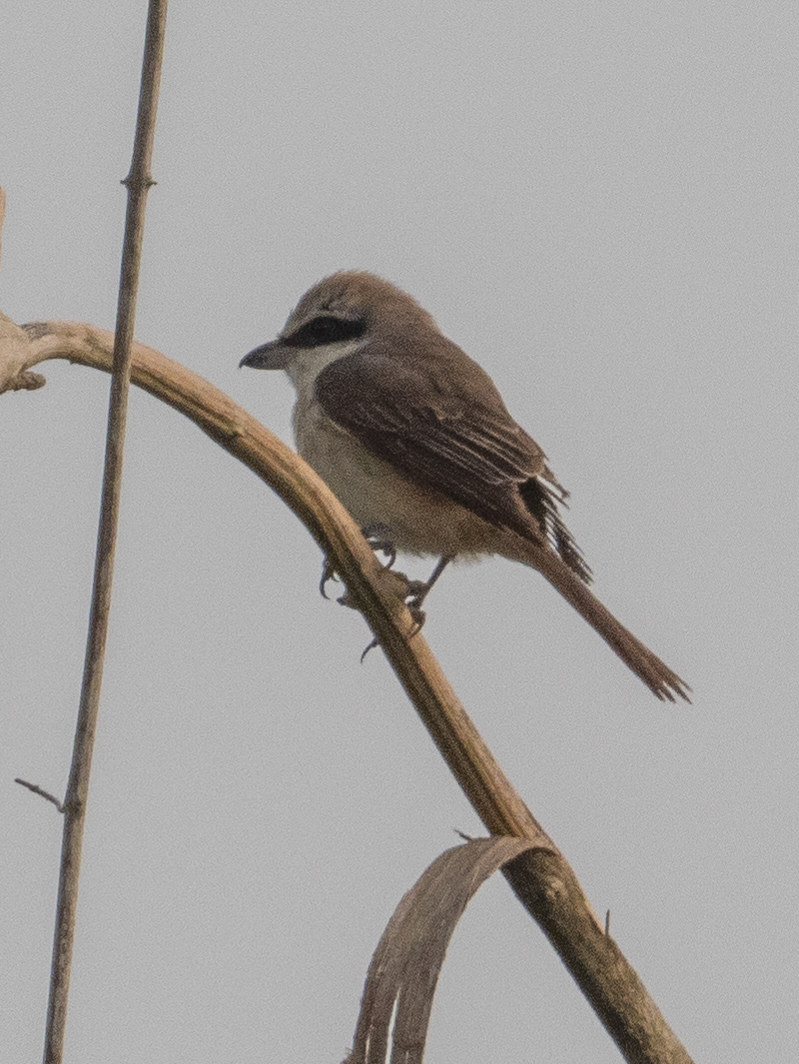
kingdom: Animalia
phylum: Chordata
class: Aves
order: Passeriformes
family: Laniidae
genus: Lanius
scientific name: Lanius cristatus
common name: Brown shrike
